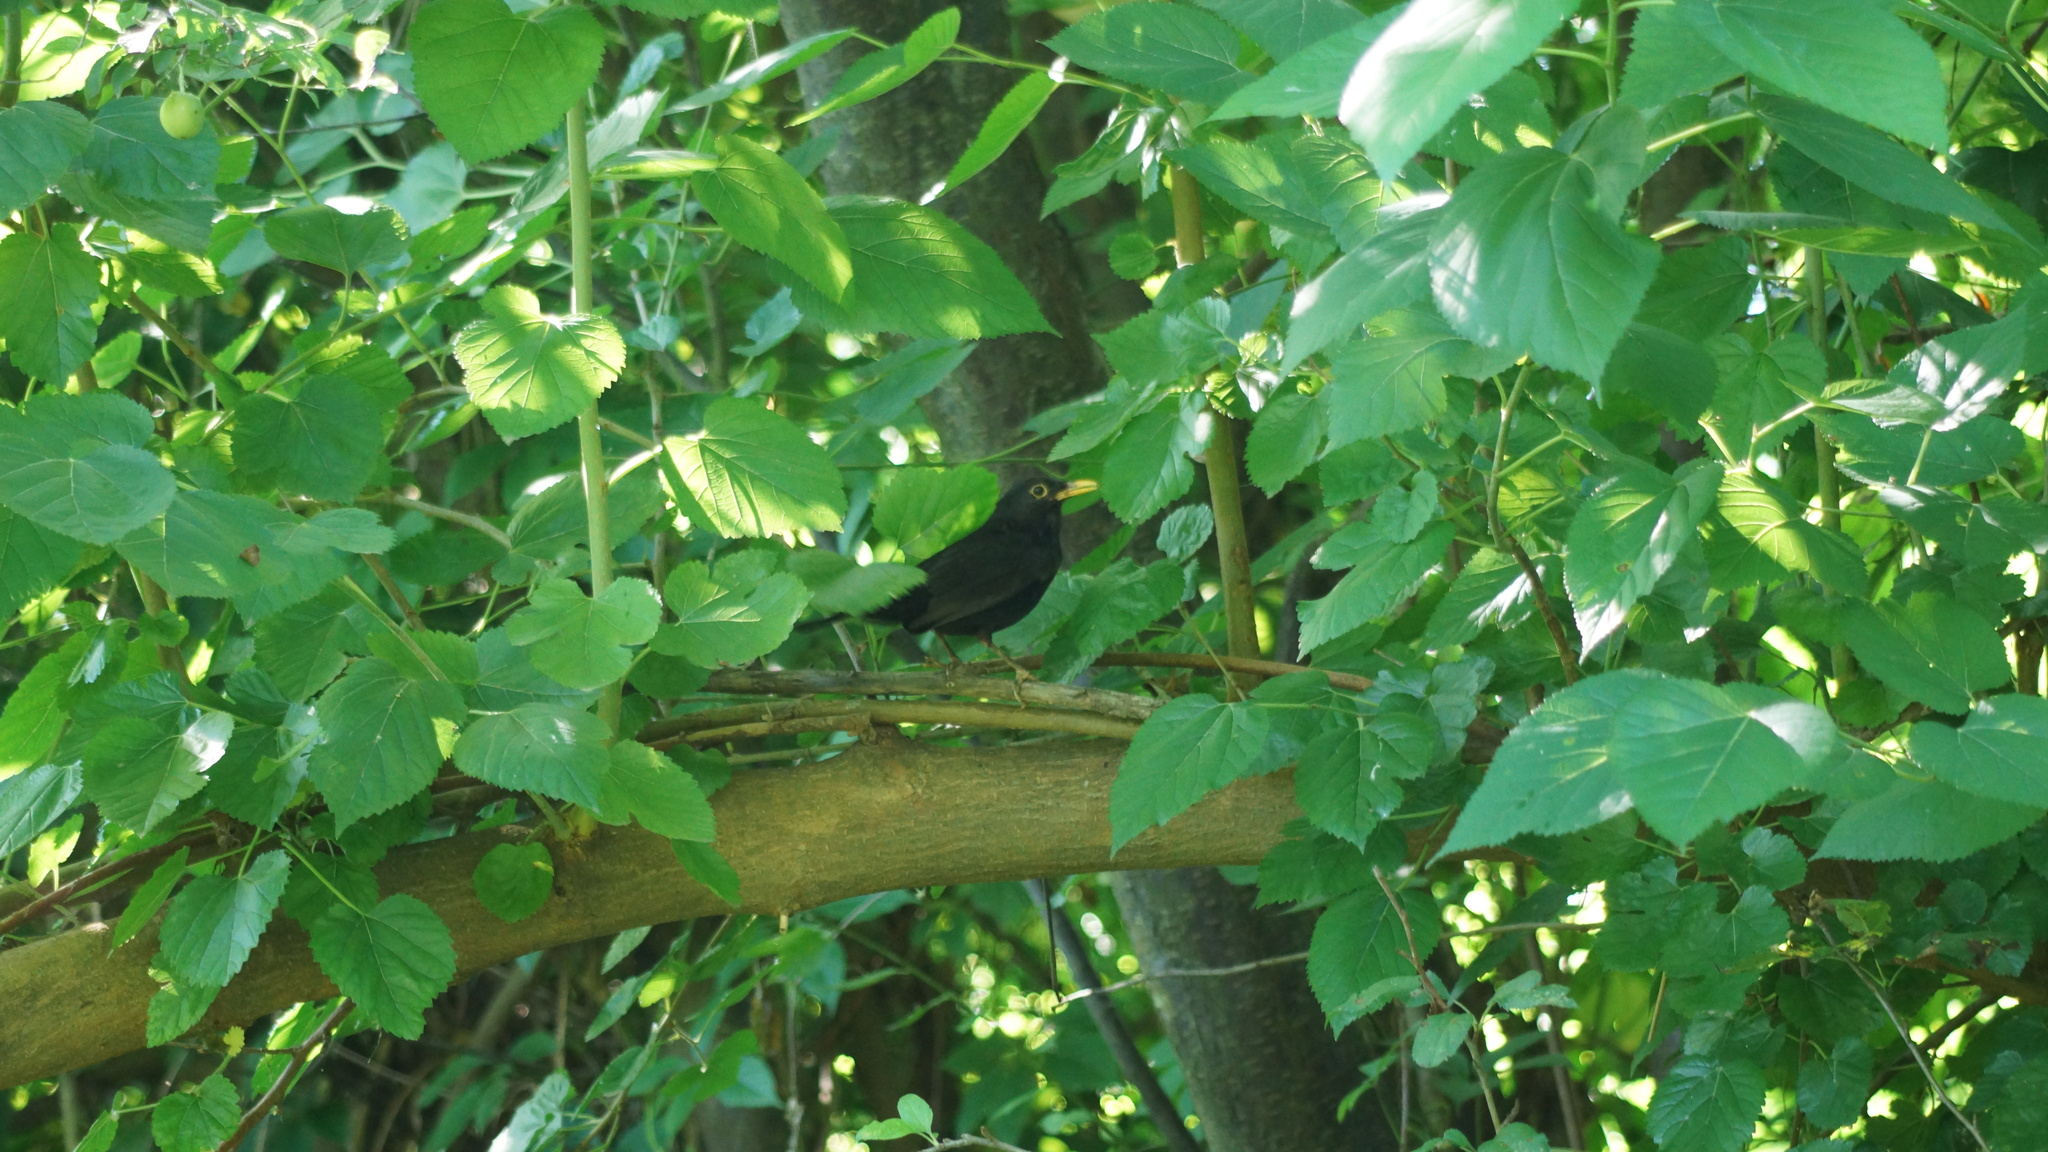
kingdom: Animalia
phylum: Chordata
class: Aves
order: Passeriformes
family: Turdidae
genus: Turdus
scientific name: Turdus merula
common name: Common blackbird
